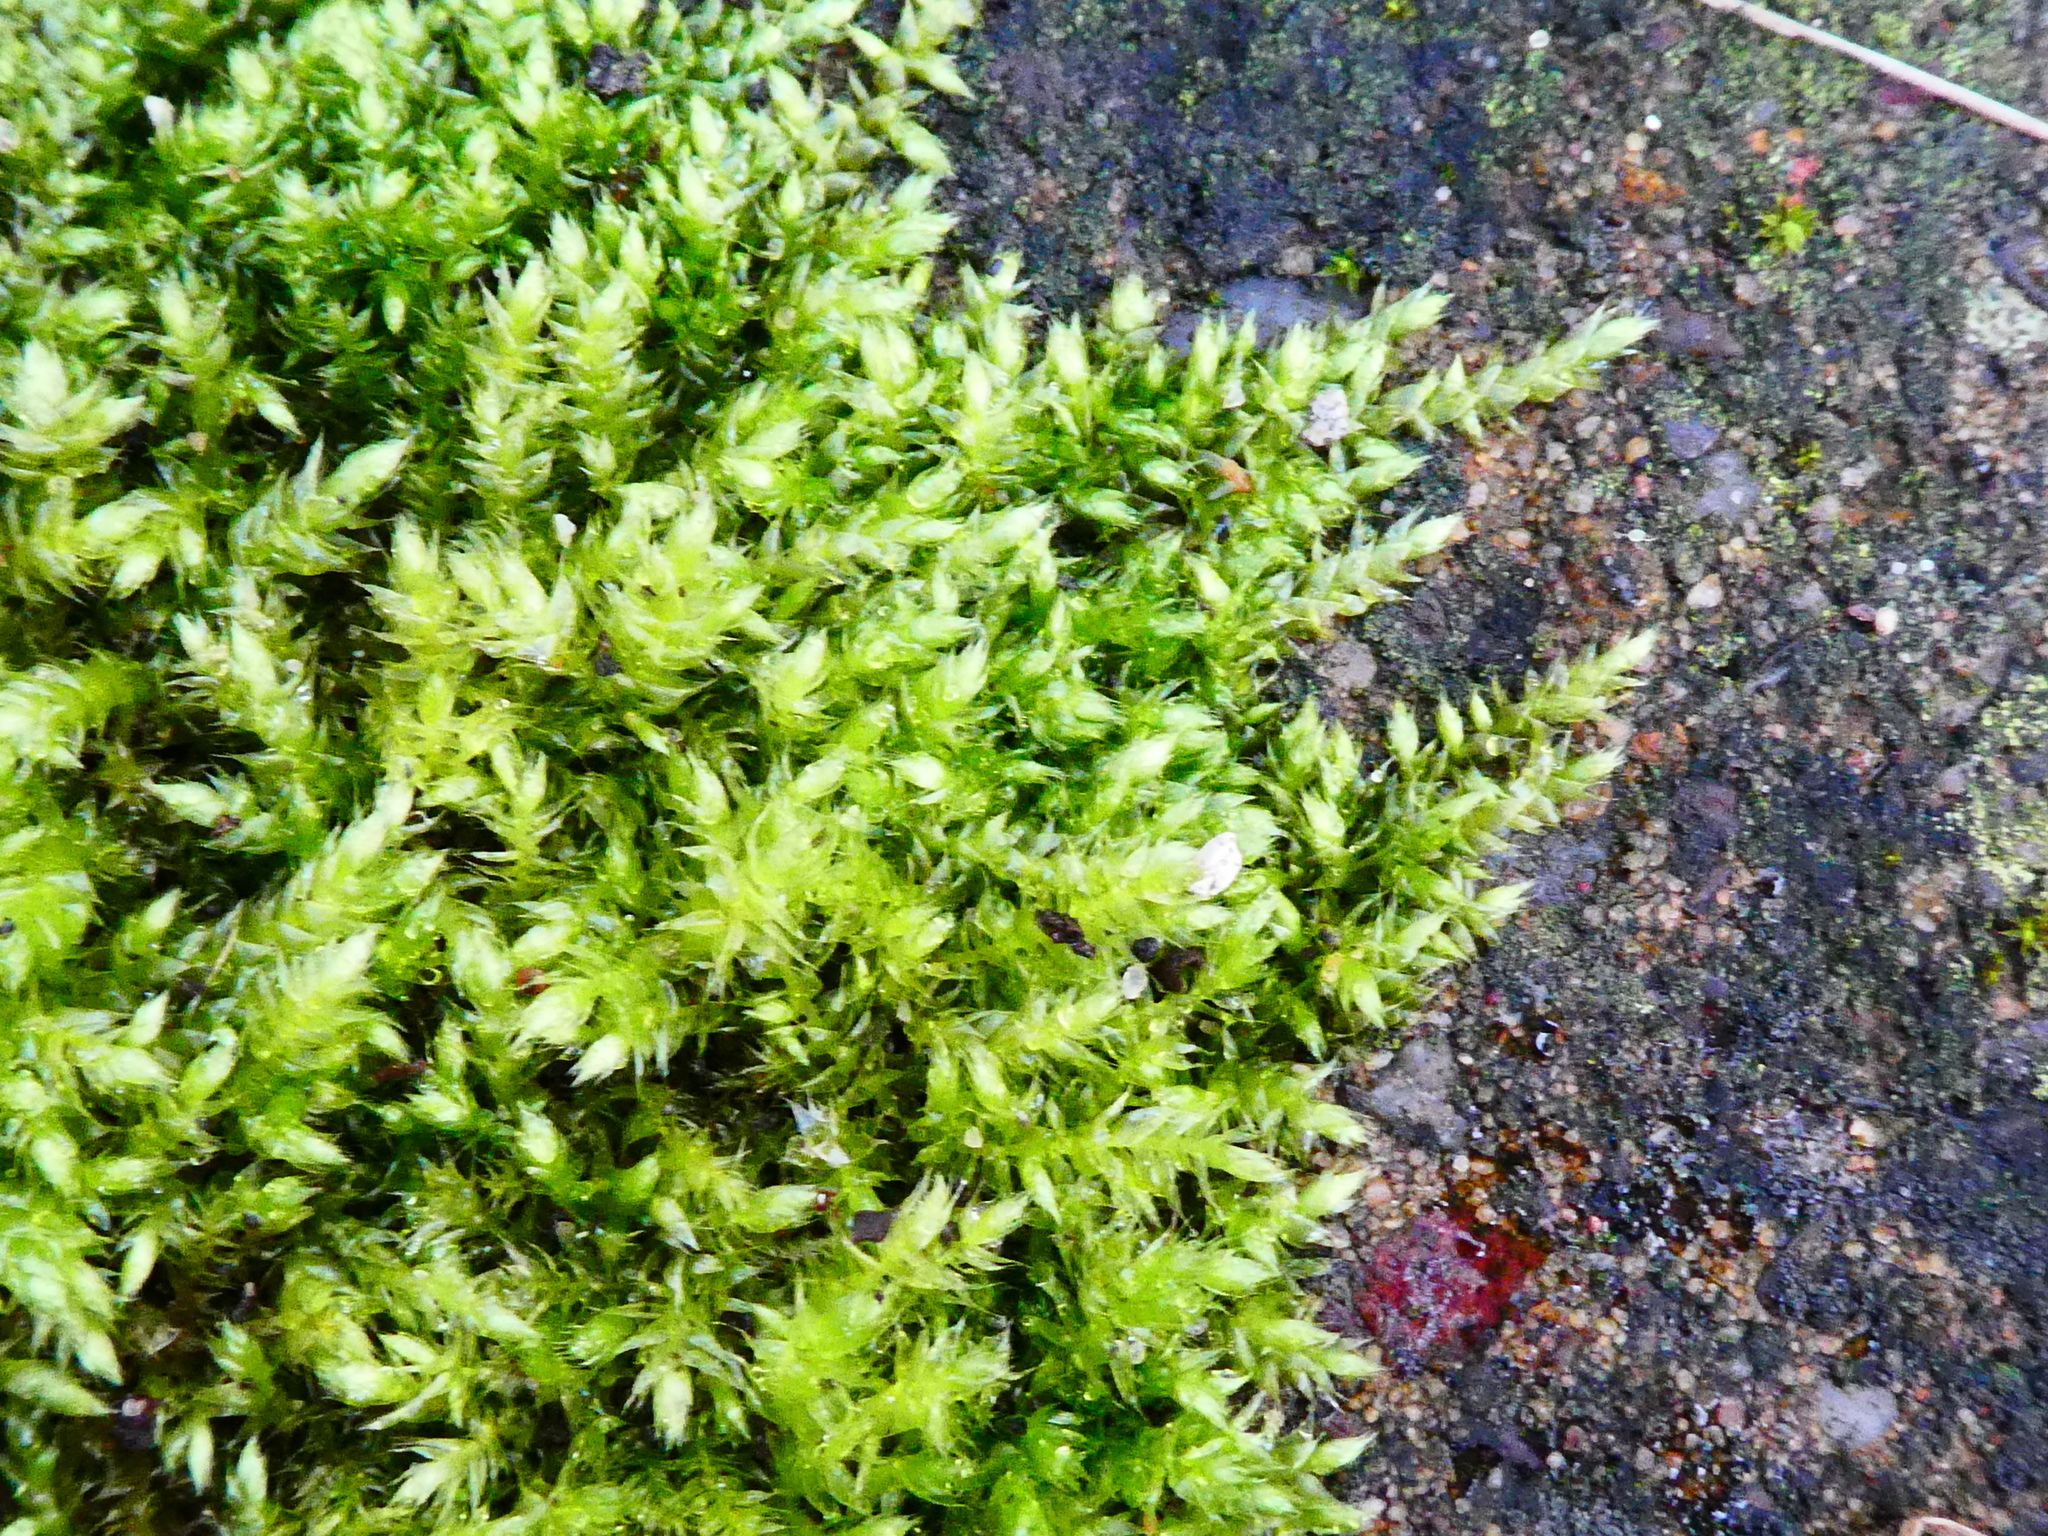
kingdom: Plantae
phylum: Bryophyta
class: Bryopsida
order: Hypnales
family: Brachytheciaceae
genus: Brachythecium
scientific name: Brachythecium rutabulum
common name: Rough-stalked feather-moss
